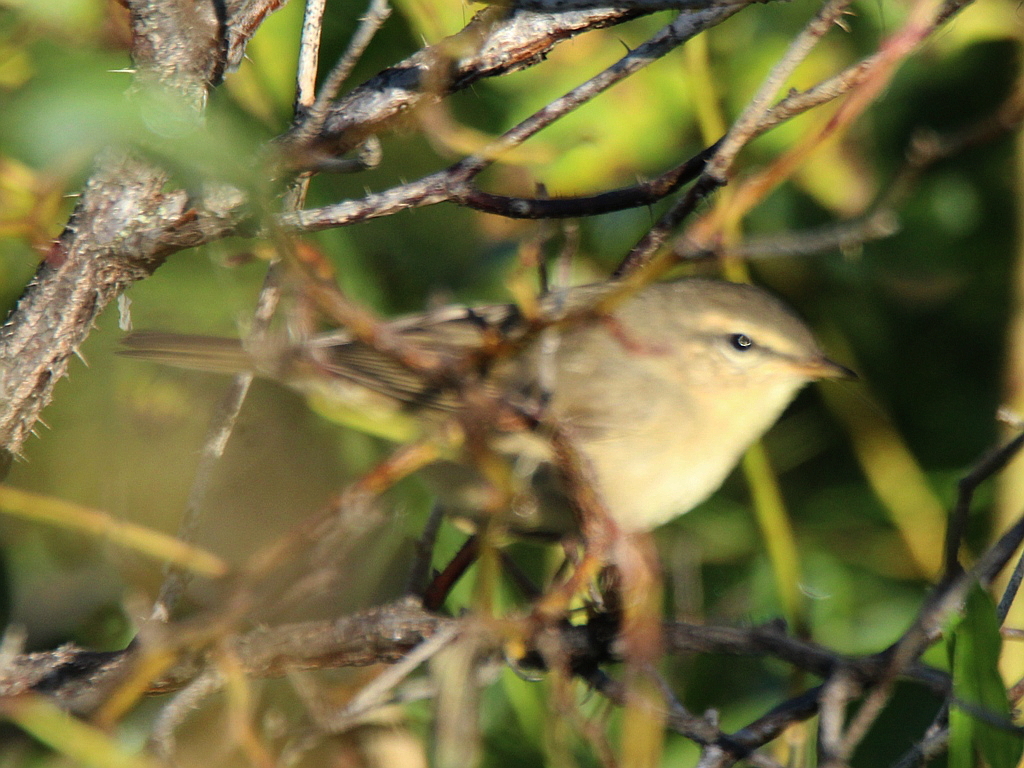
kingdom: Animalia
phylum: Chordata
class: Aves
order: Passeriformes
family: Phylloscopidae
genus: Phylloscopus
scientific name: Phylloscopus fuscatus
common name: Dusky warbler
